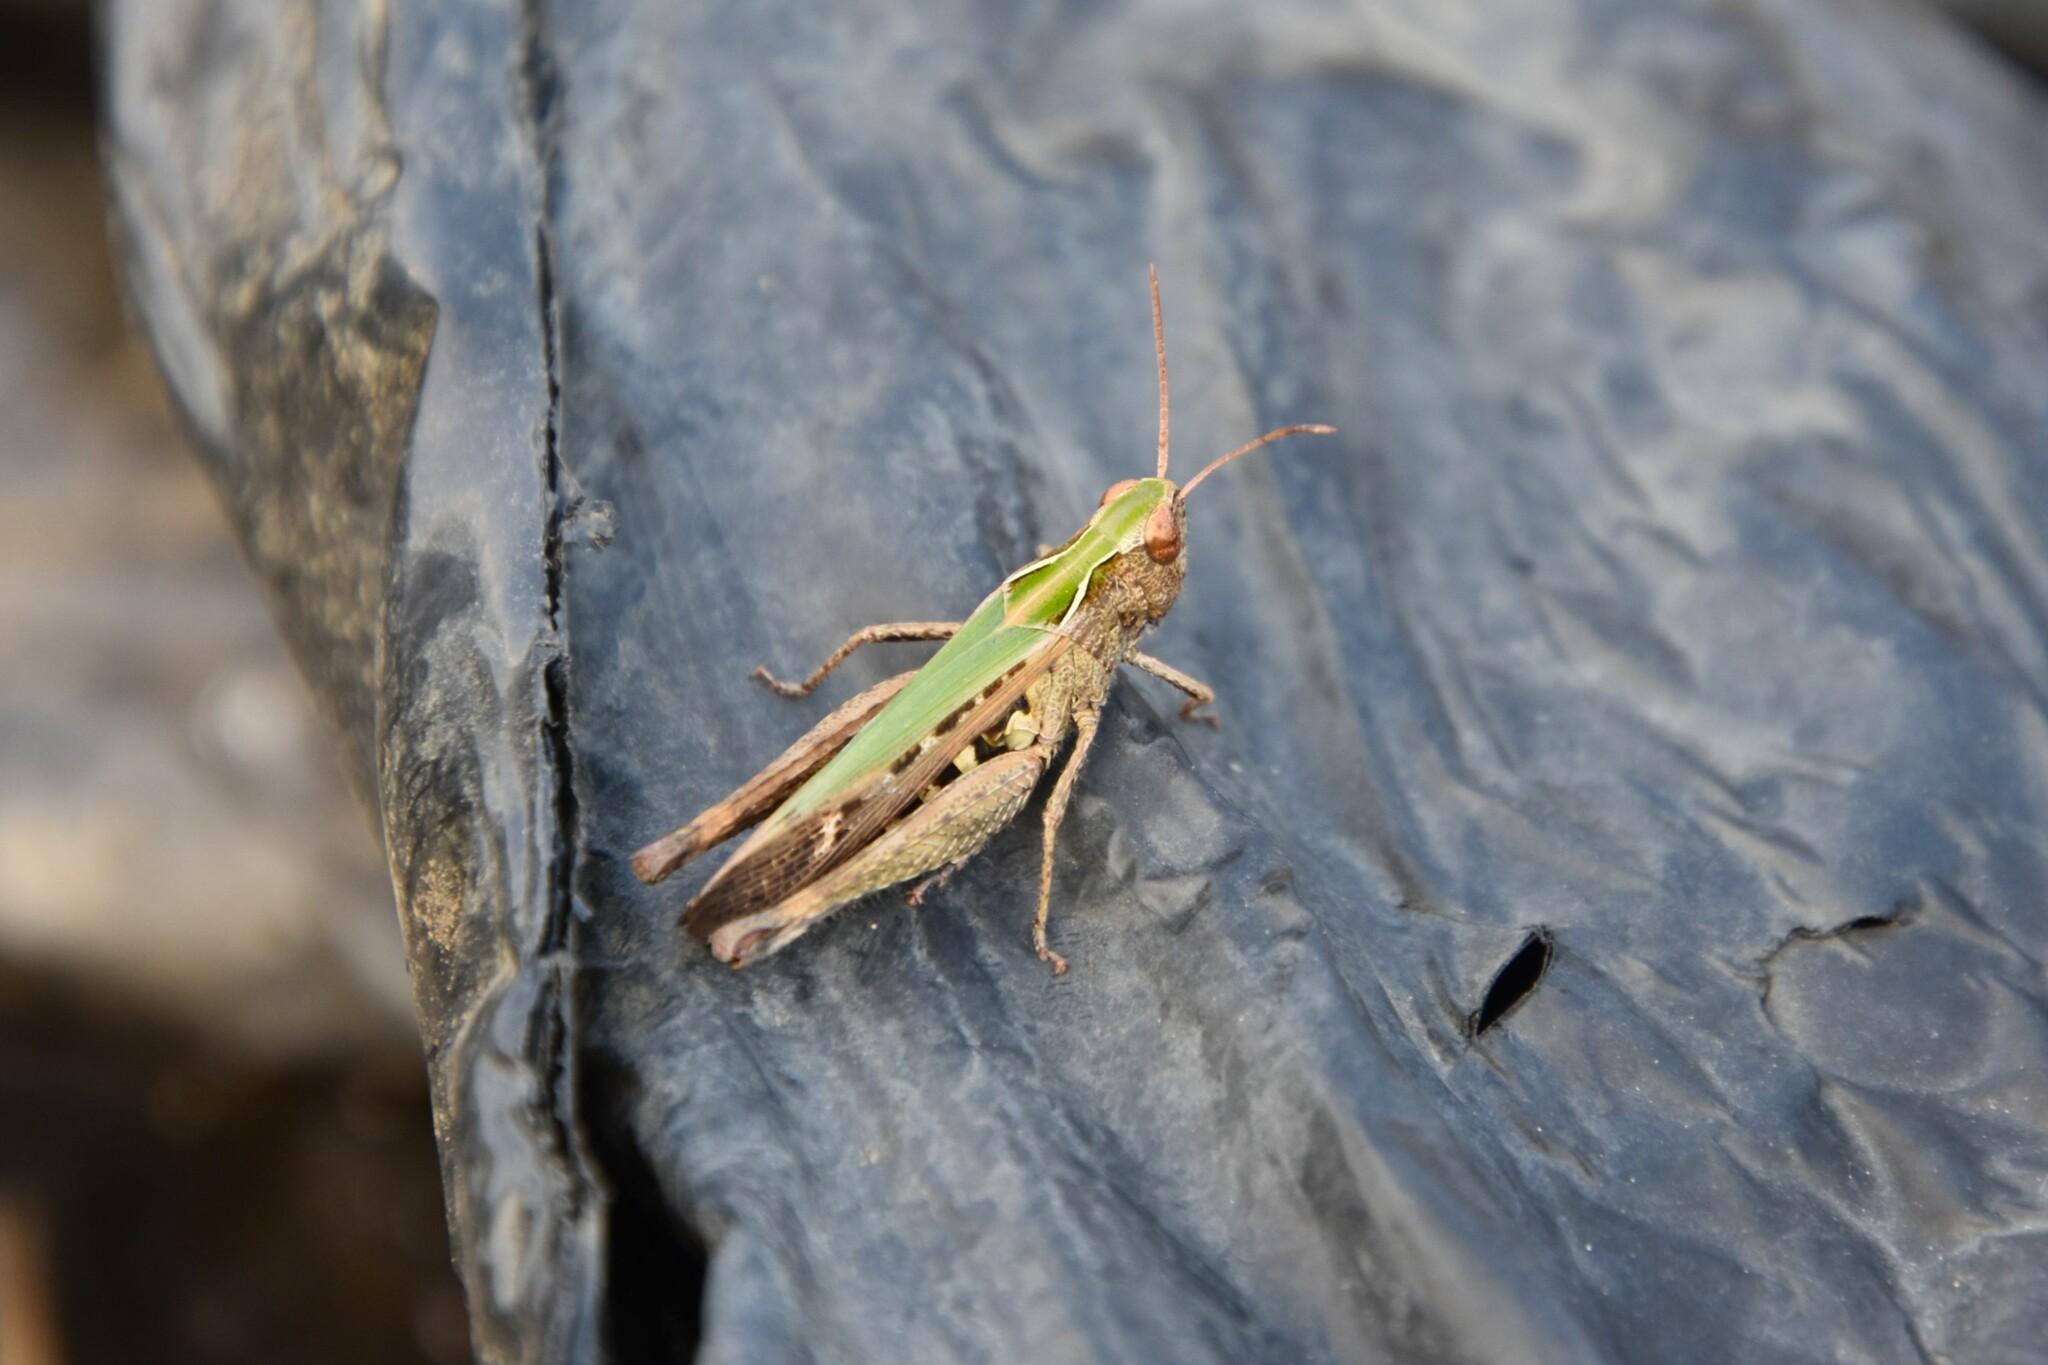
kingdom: Animalia
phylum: Arthropoda
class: Insecta
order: Orthoptera
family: Acrididae
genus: Omocestus
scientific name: Omocestus rufipes
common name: Woodland grasshopper
